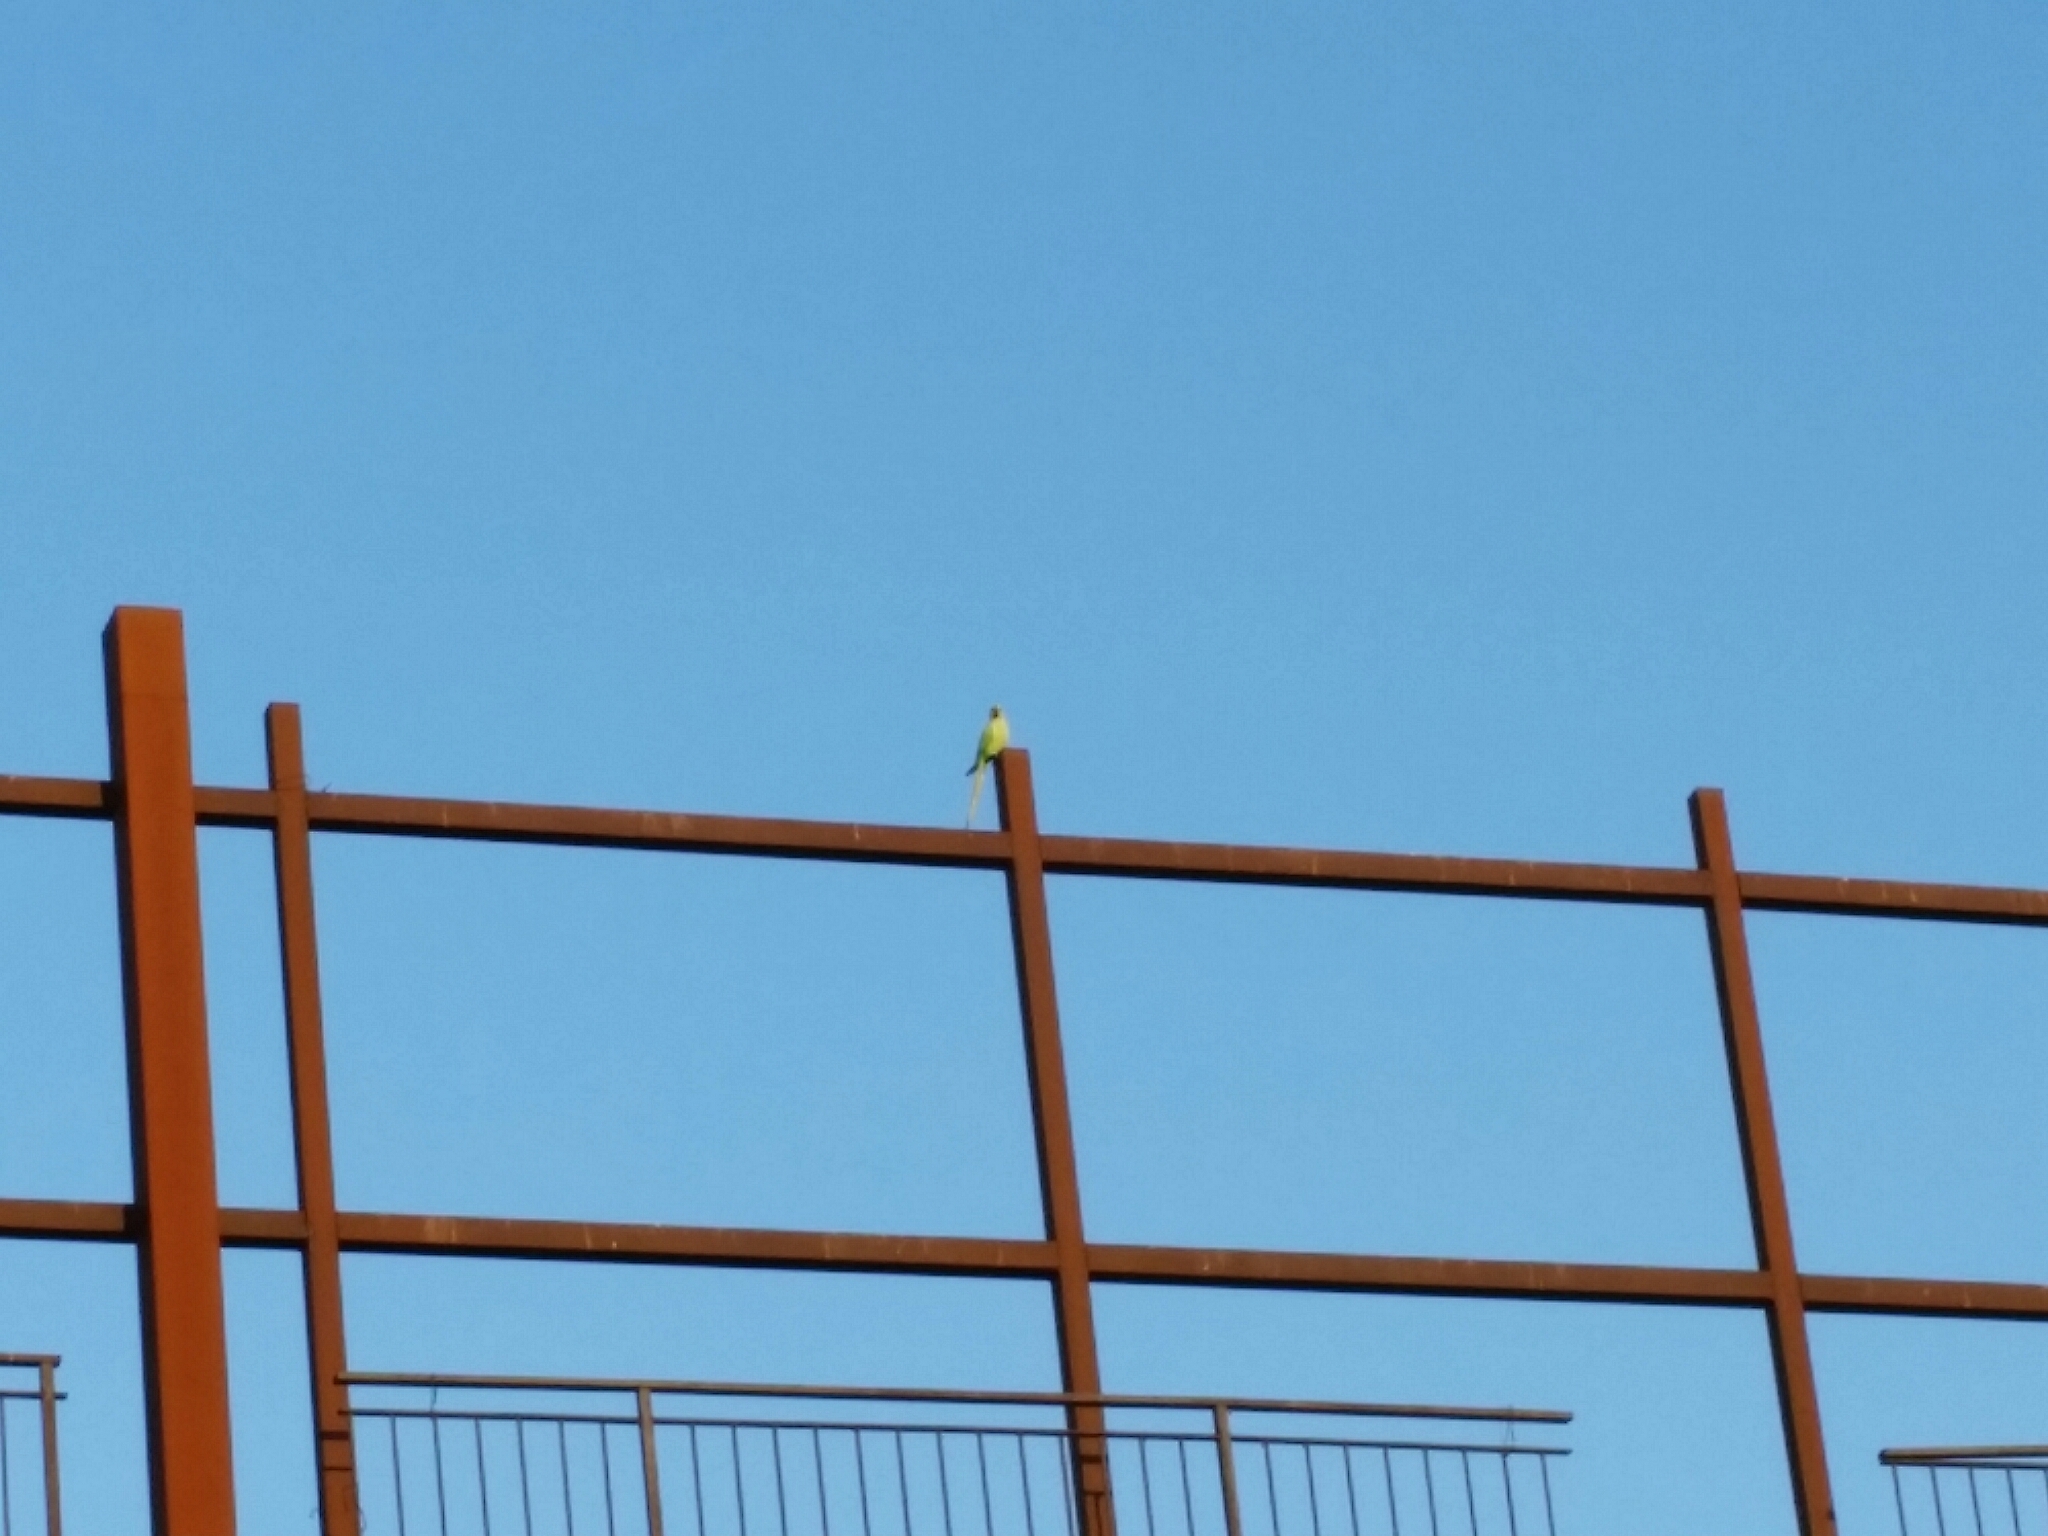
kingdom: Animalia
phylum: Chordata
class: Aves
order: Psittaciformes
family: Psittacidae
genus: Psittacula
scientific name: Psittacula krameri
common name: Rose-ringed parakeet
